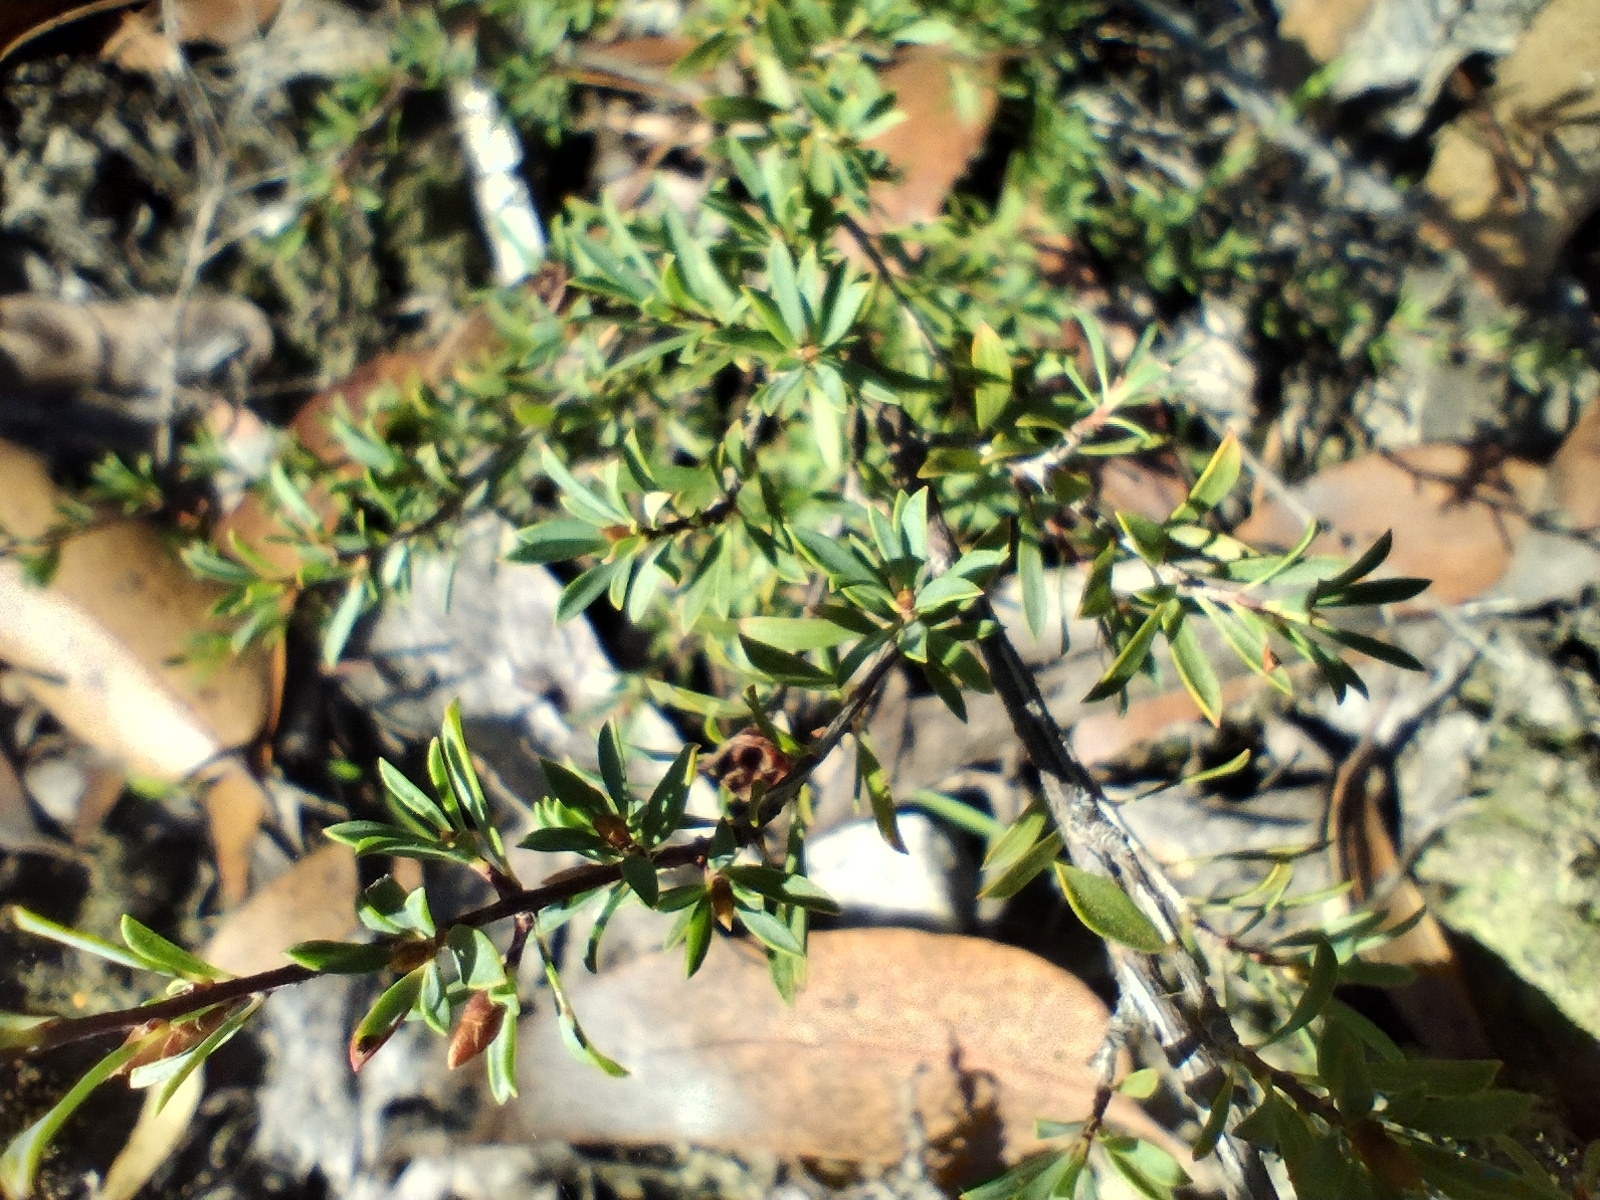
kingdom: Plantae
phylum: Tracheophyta
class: Magnoliopsida
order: Myrtales
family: Myrtaceae
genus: Leptospermum
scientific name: Leptospermum myrsinoides
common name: Heath teatree
